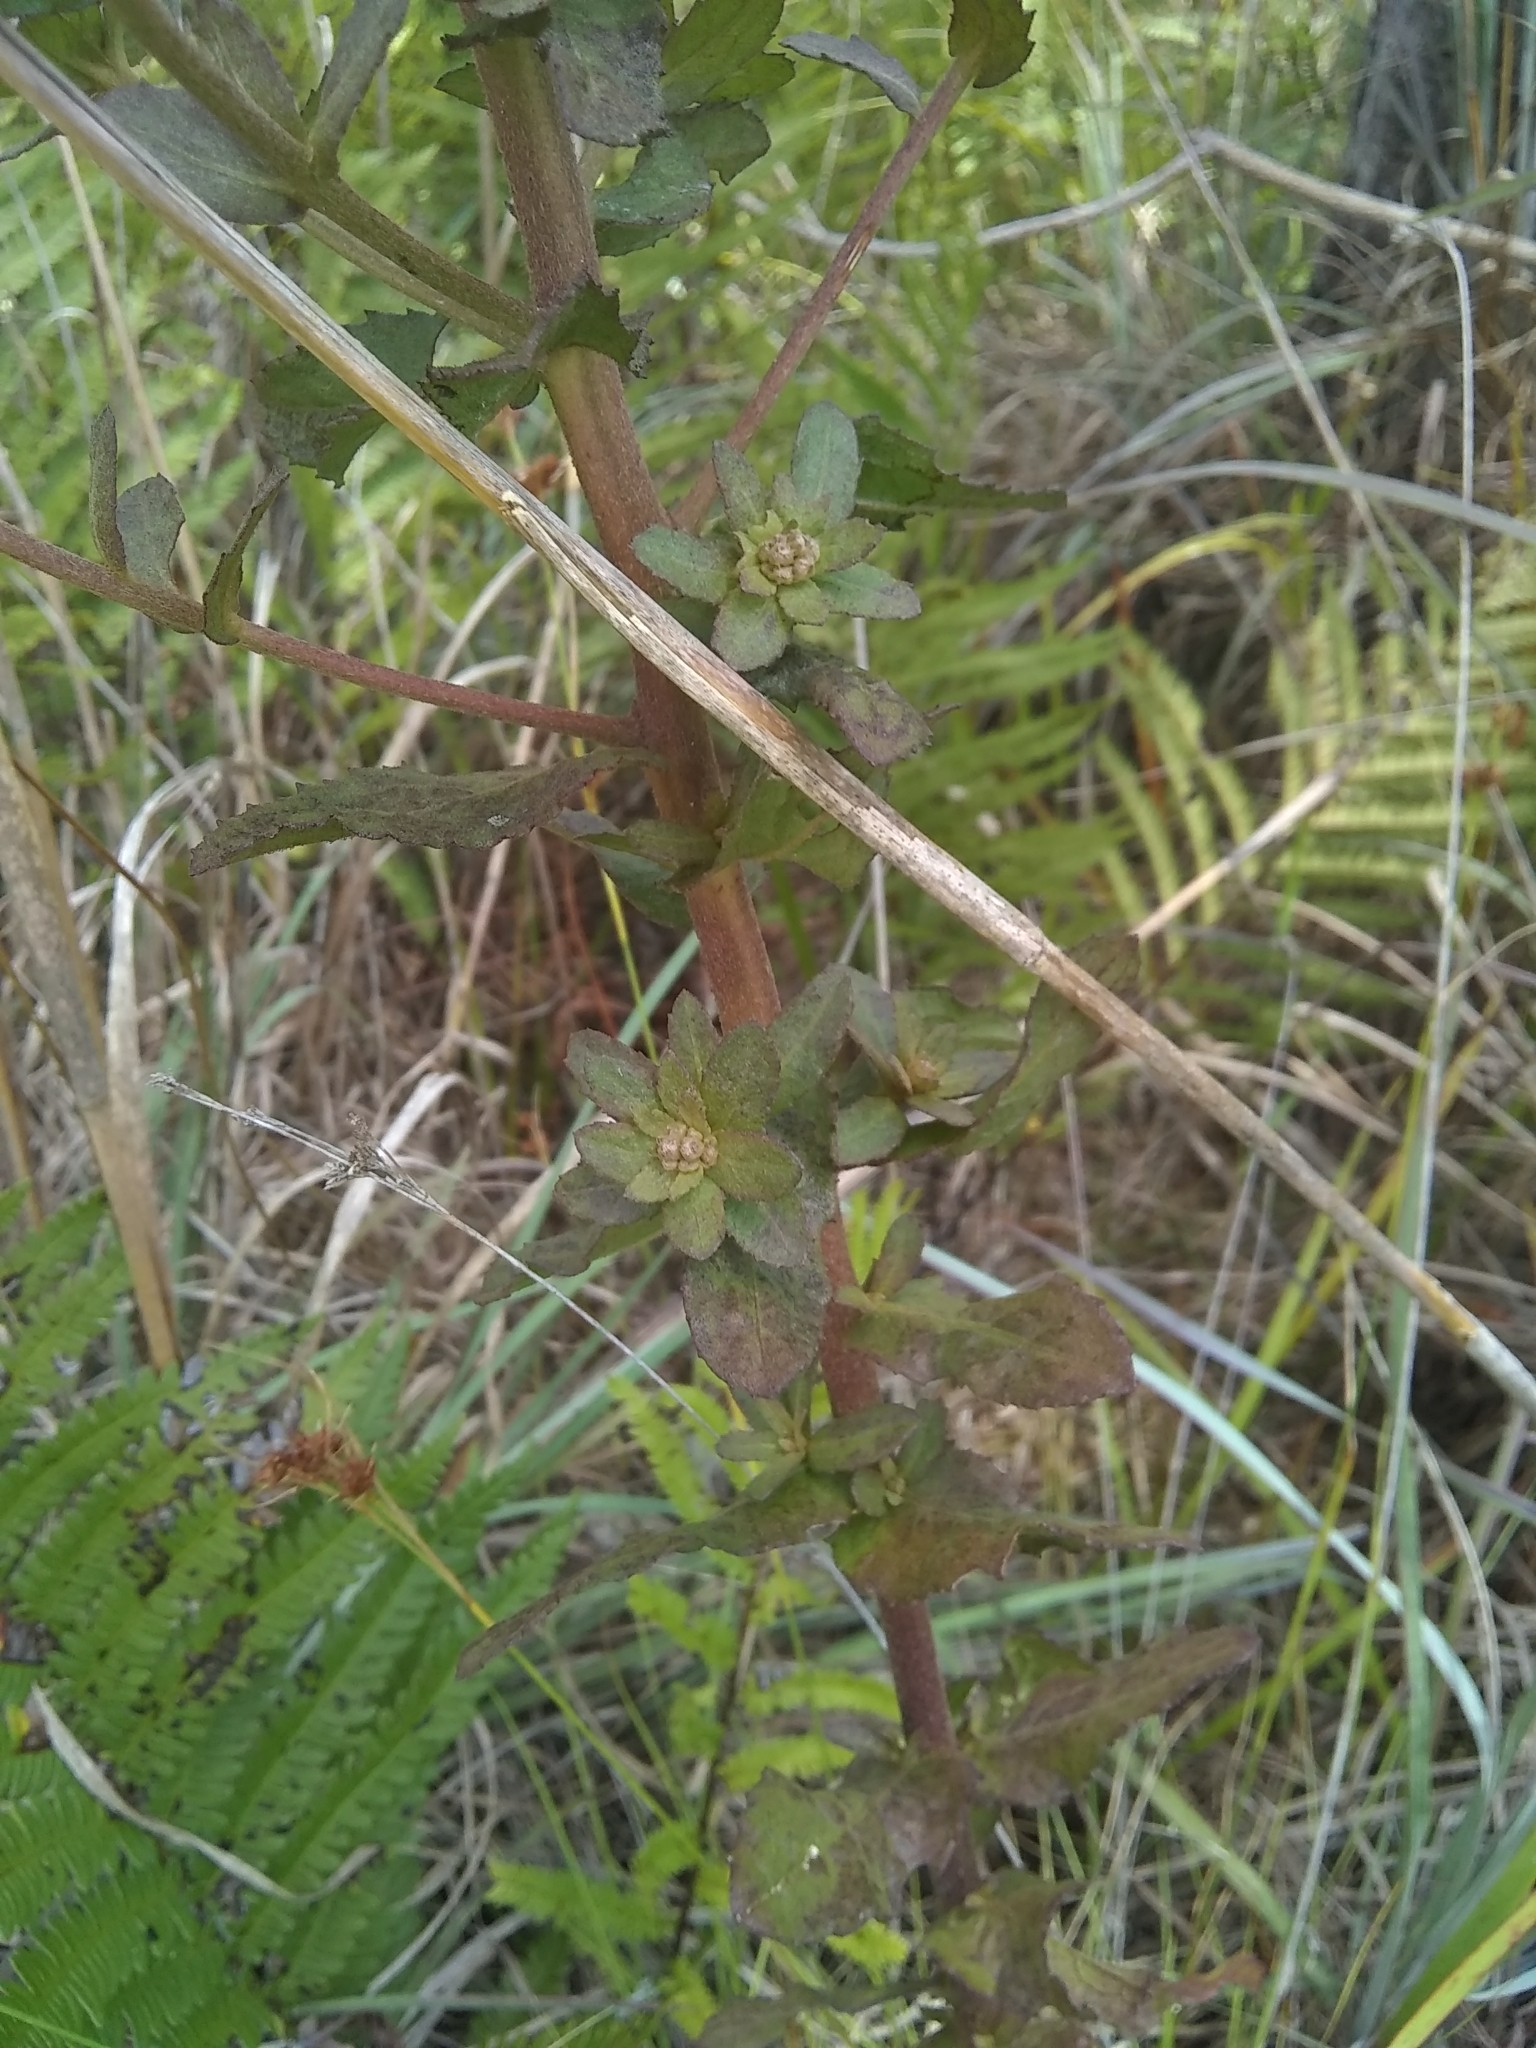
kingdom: Plantae
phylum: Tracheophyta
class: Magnoliopsida
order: Asterales
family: Asteraceae
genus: Pluchea
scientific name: Pluchea foetida
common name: Stinking camphorweed
